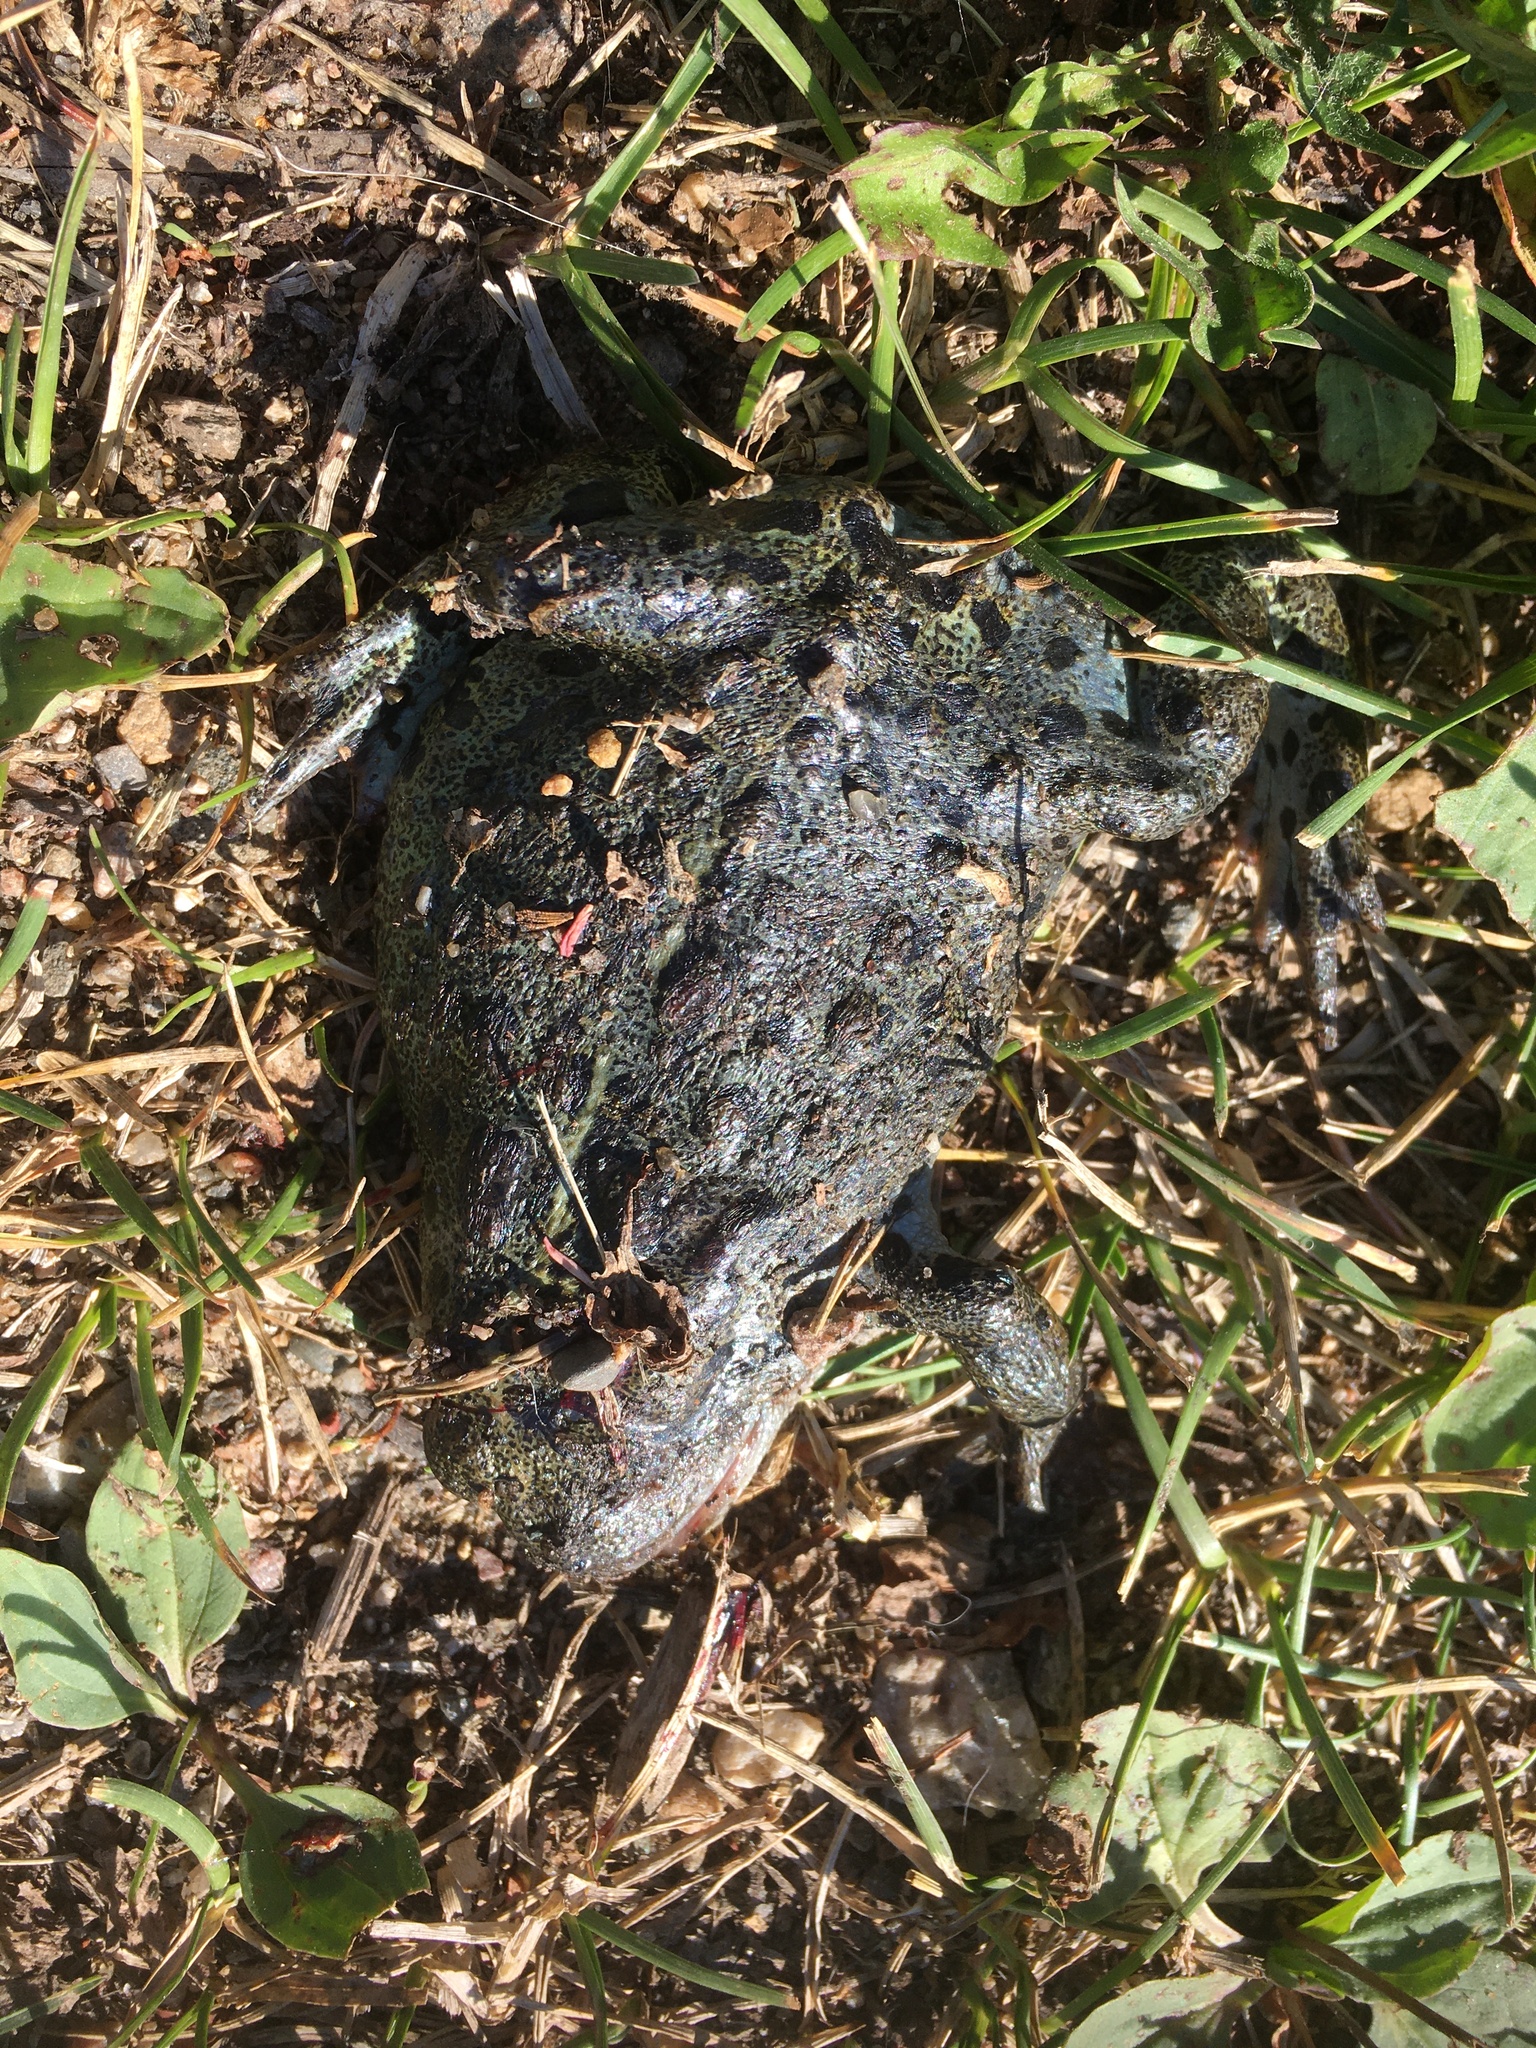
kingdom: Animalia
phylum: Chordata
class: Amphibia
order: Anura
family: Bufonidae
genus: Anaxyrus
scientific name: Anaxyrus boreas
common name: Western toad
